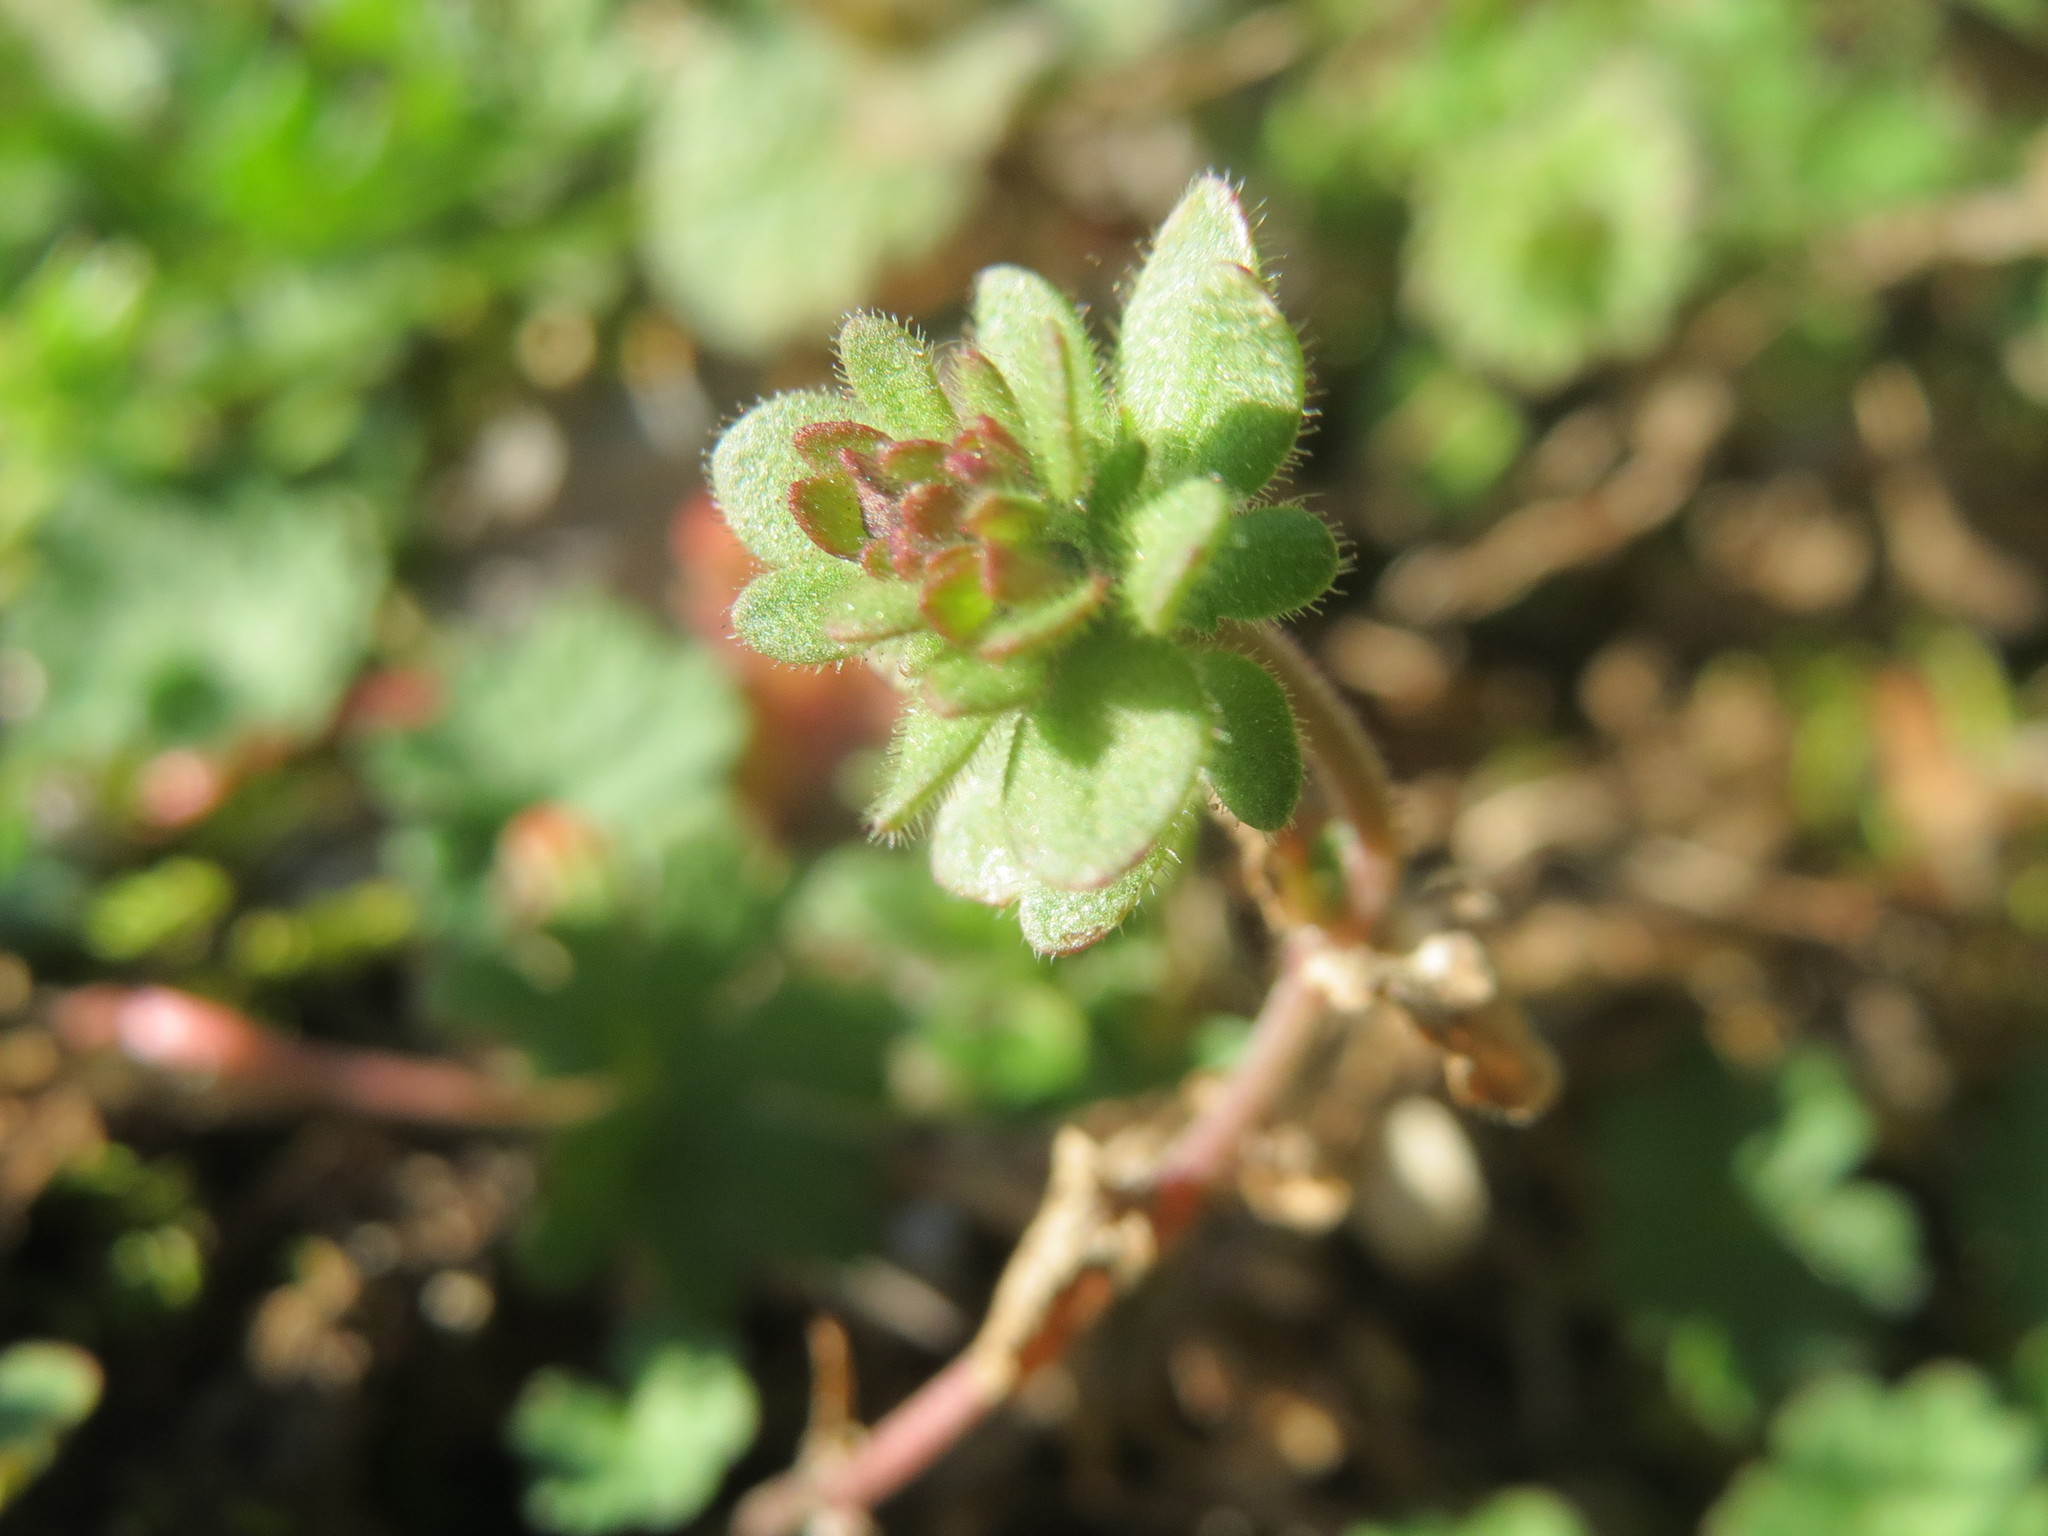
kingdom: Plantae
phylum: Tracheophyta
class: Magnoliopsida
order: Lamiales
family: Plantaginaceae
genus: Veronica
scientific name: Veronica triphyllos
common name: Fingered speedwell
